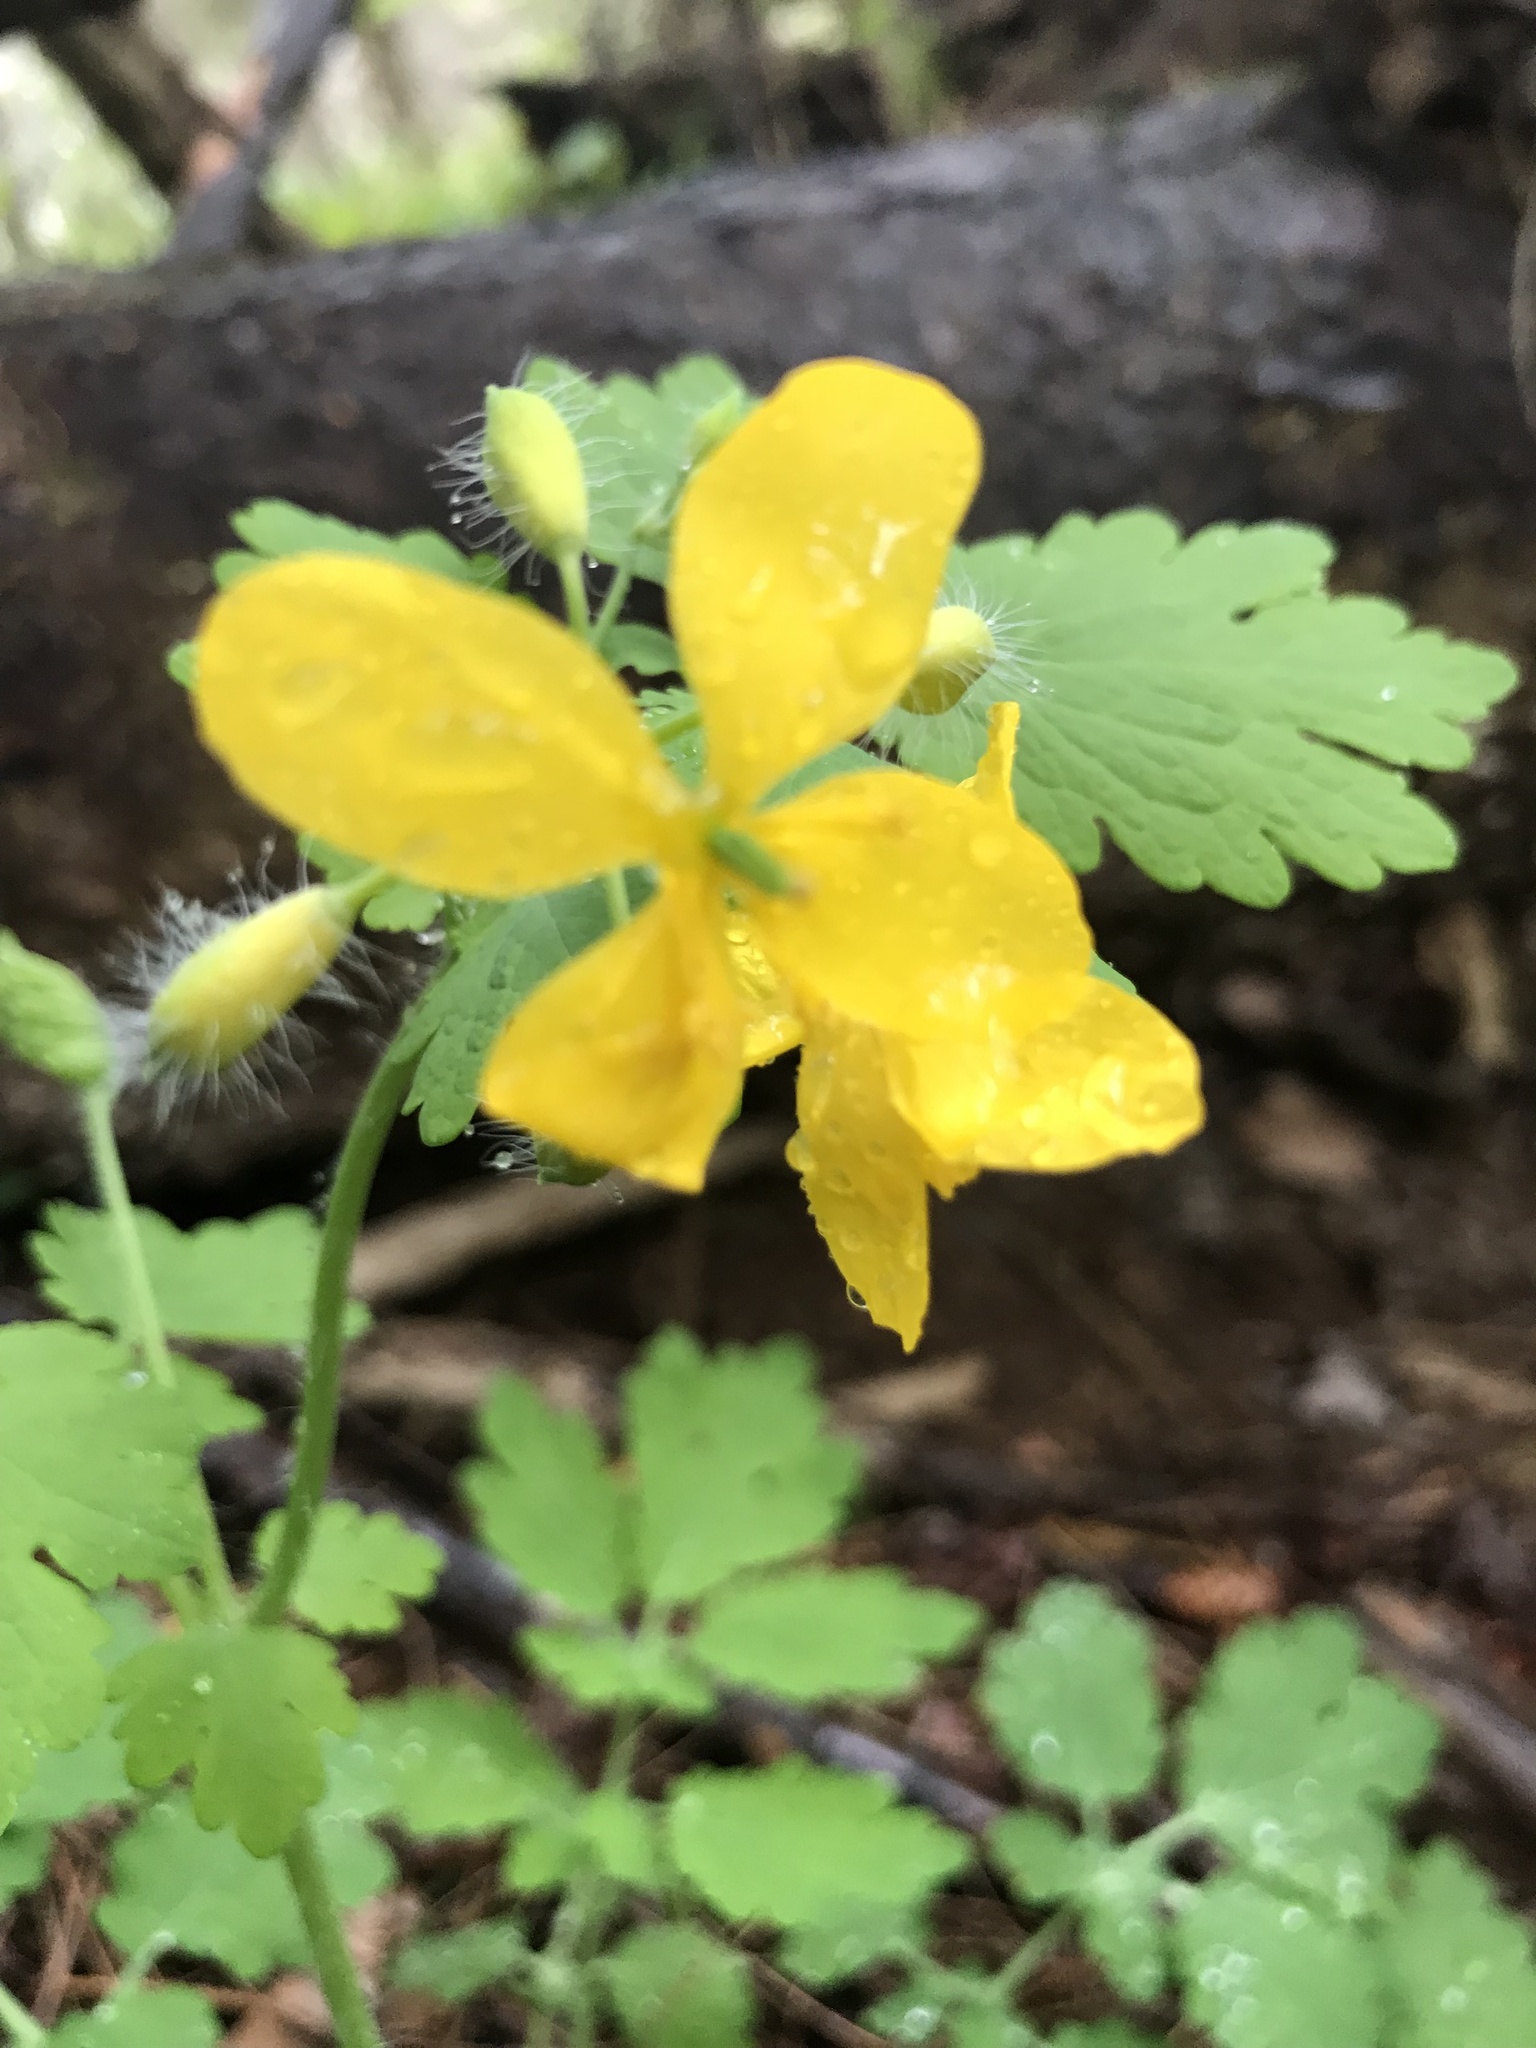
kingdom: Plantae
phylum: Tracheophyta
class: Magnoliopsida
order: Ranunculales
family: Papaveraceae
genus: Chelidonium
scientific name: Chelidonium majus
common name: Greater celandine
